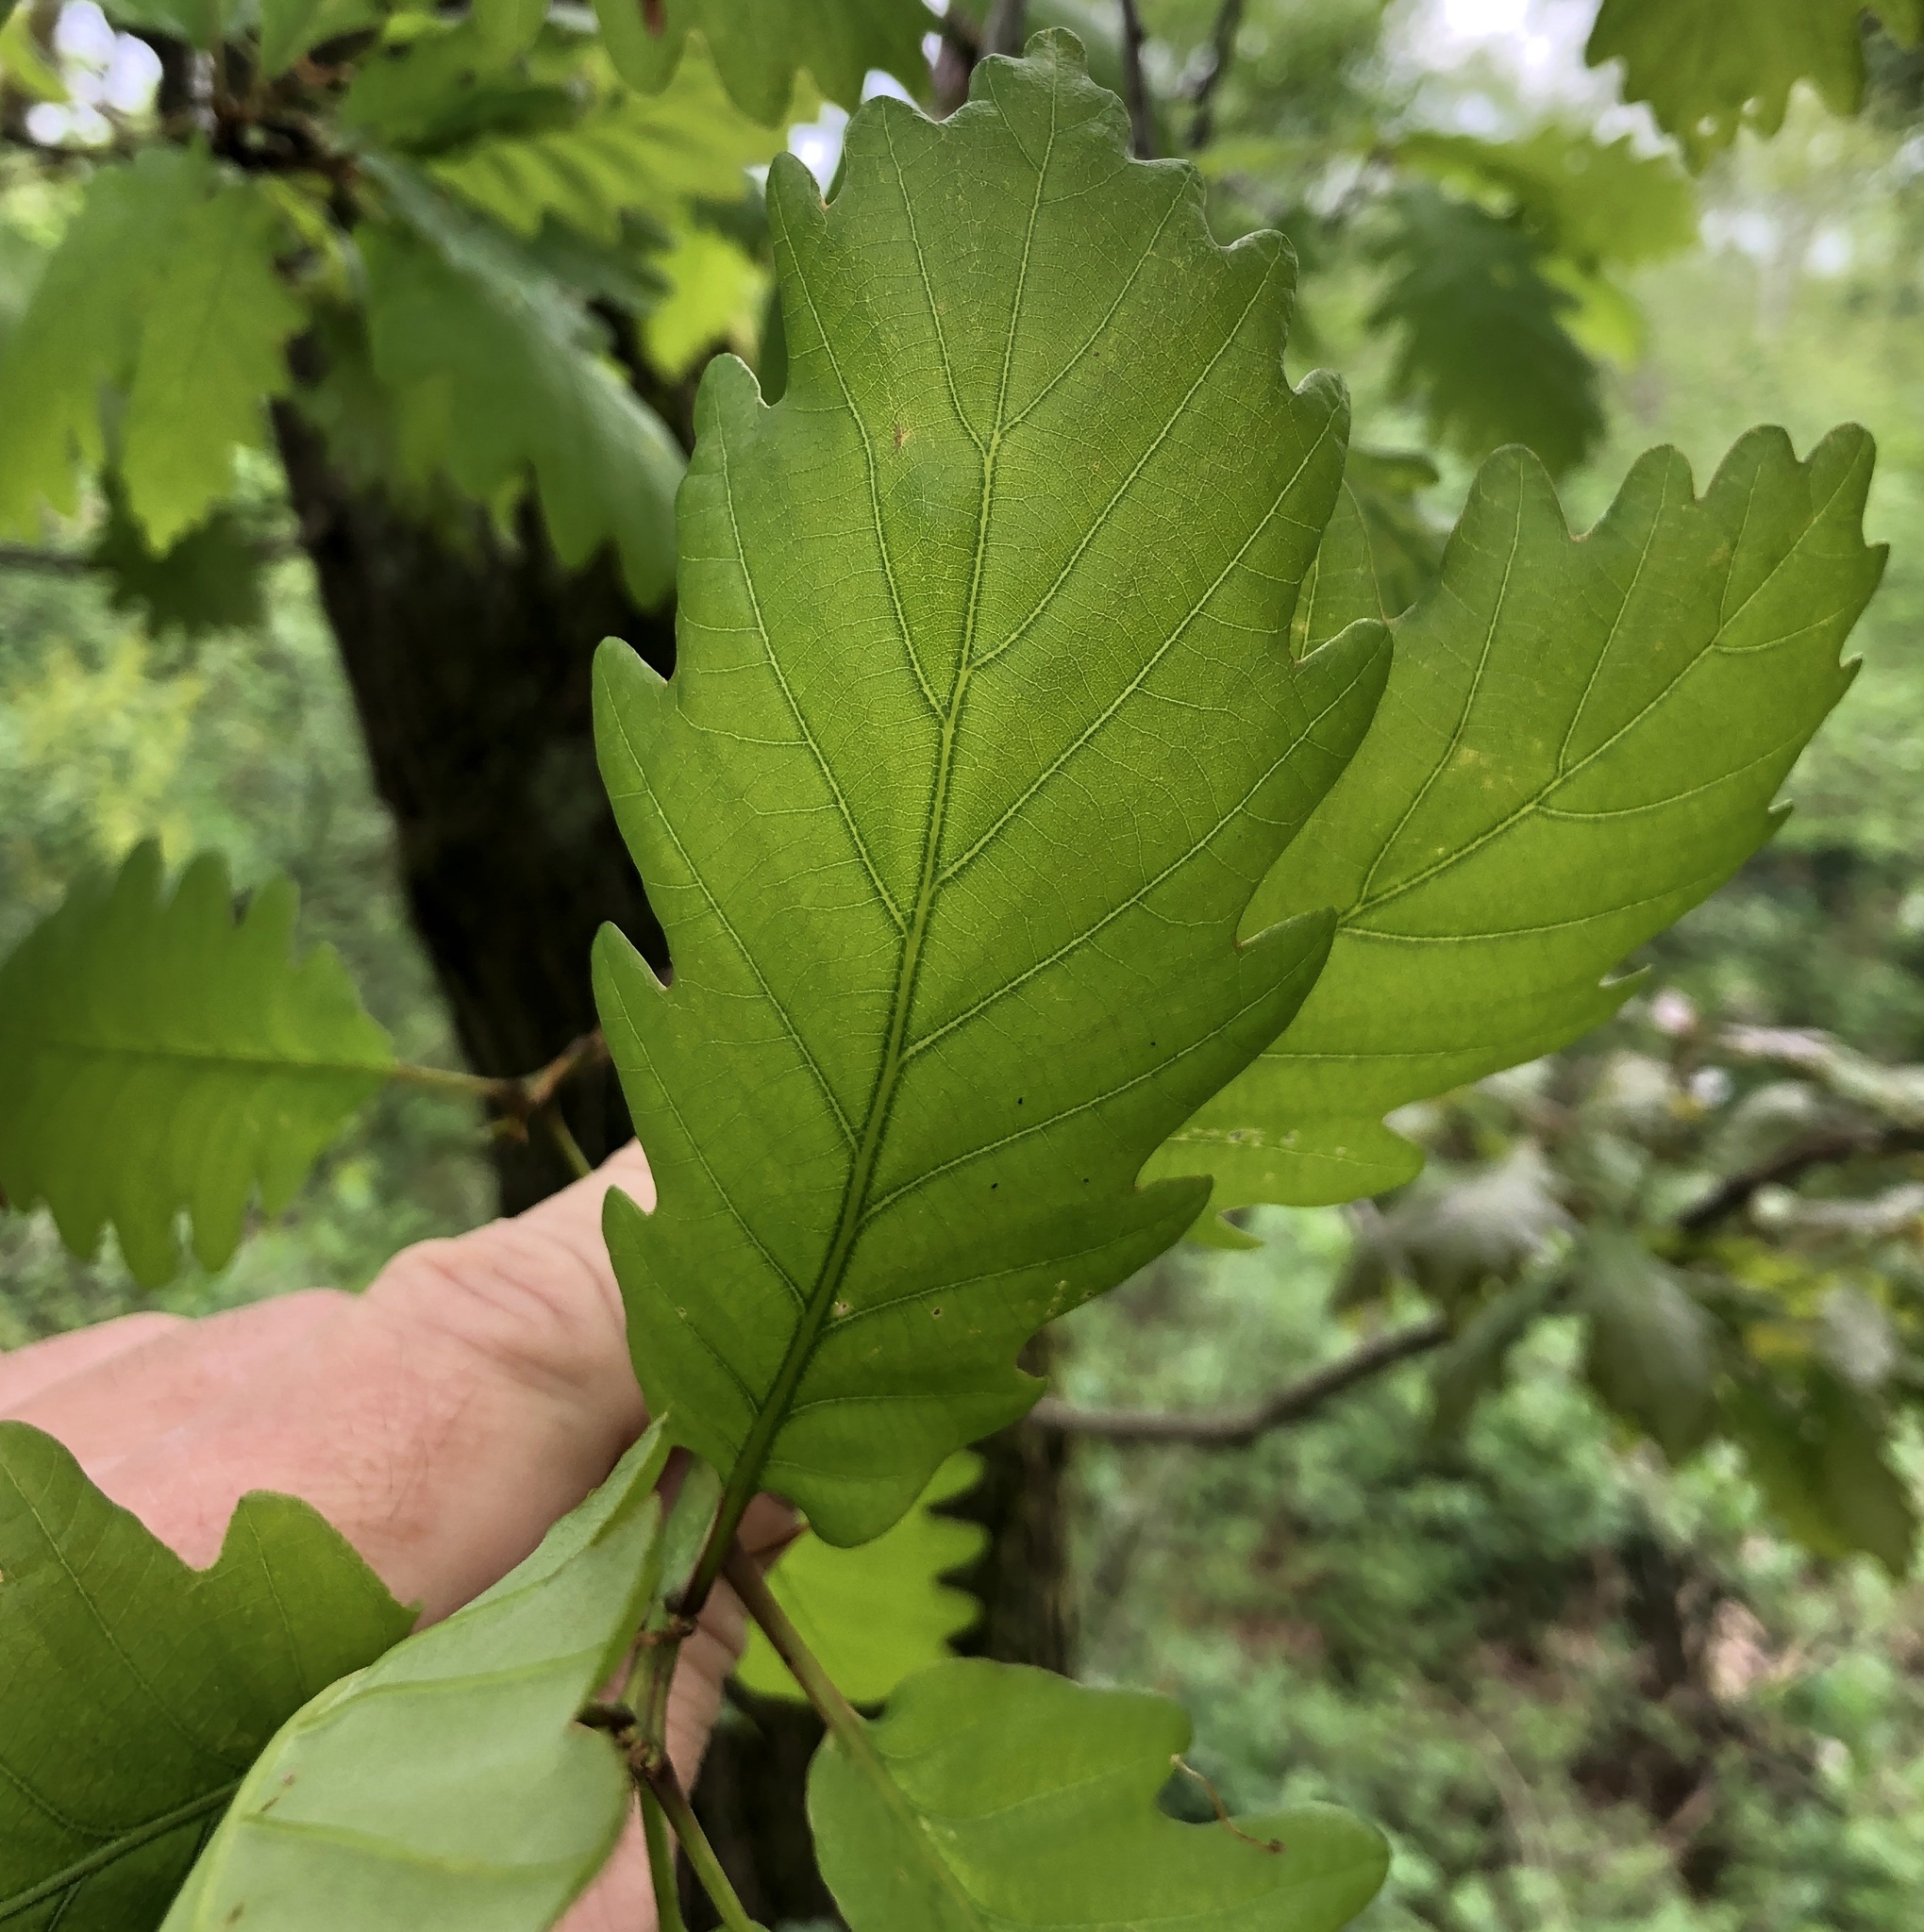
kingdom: Plantae
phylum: Tracheophyta
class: Magnoliopsida
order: Fagales
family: Fagaceae
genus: Quercus
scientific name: Quercus petraea
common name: Sessile oak
